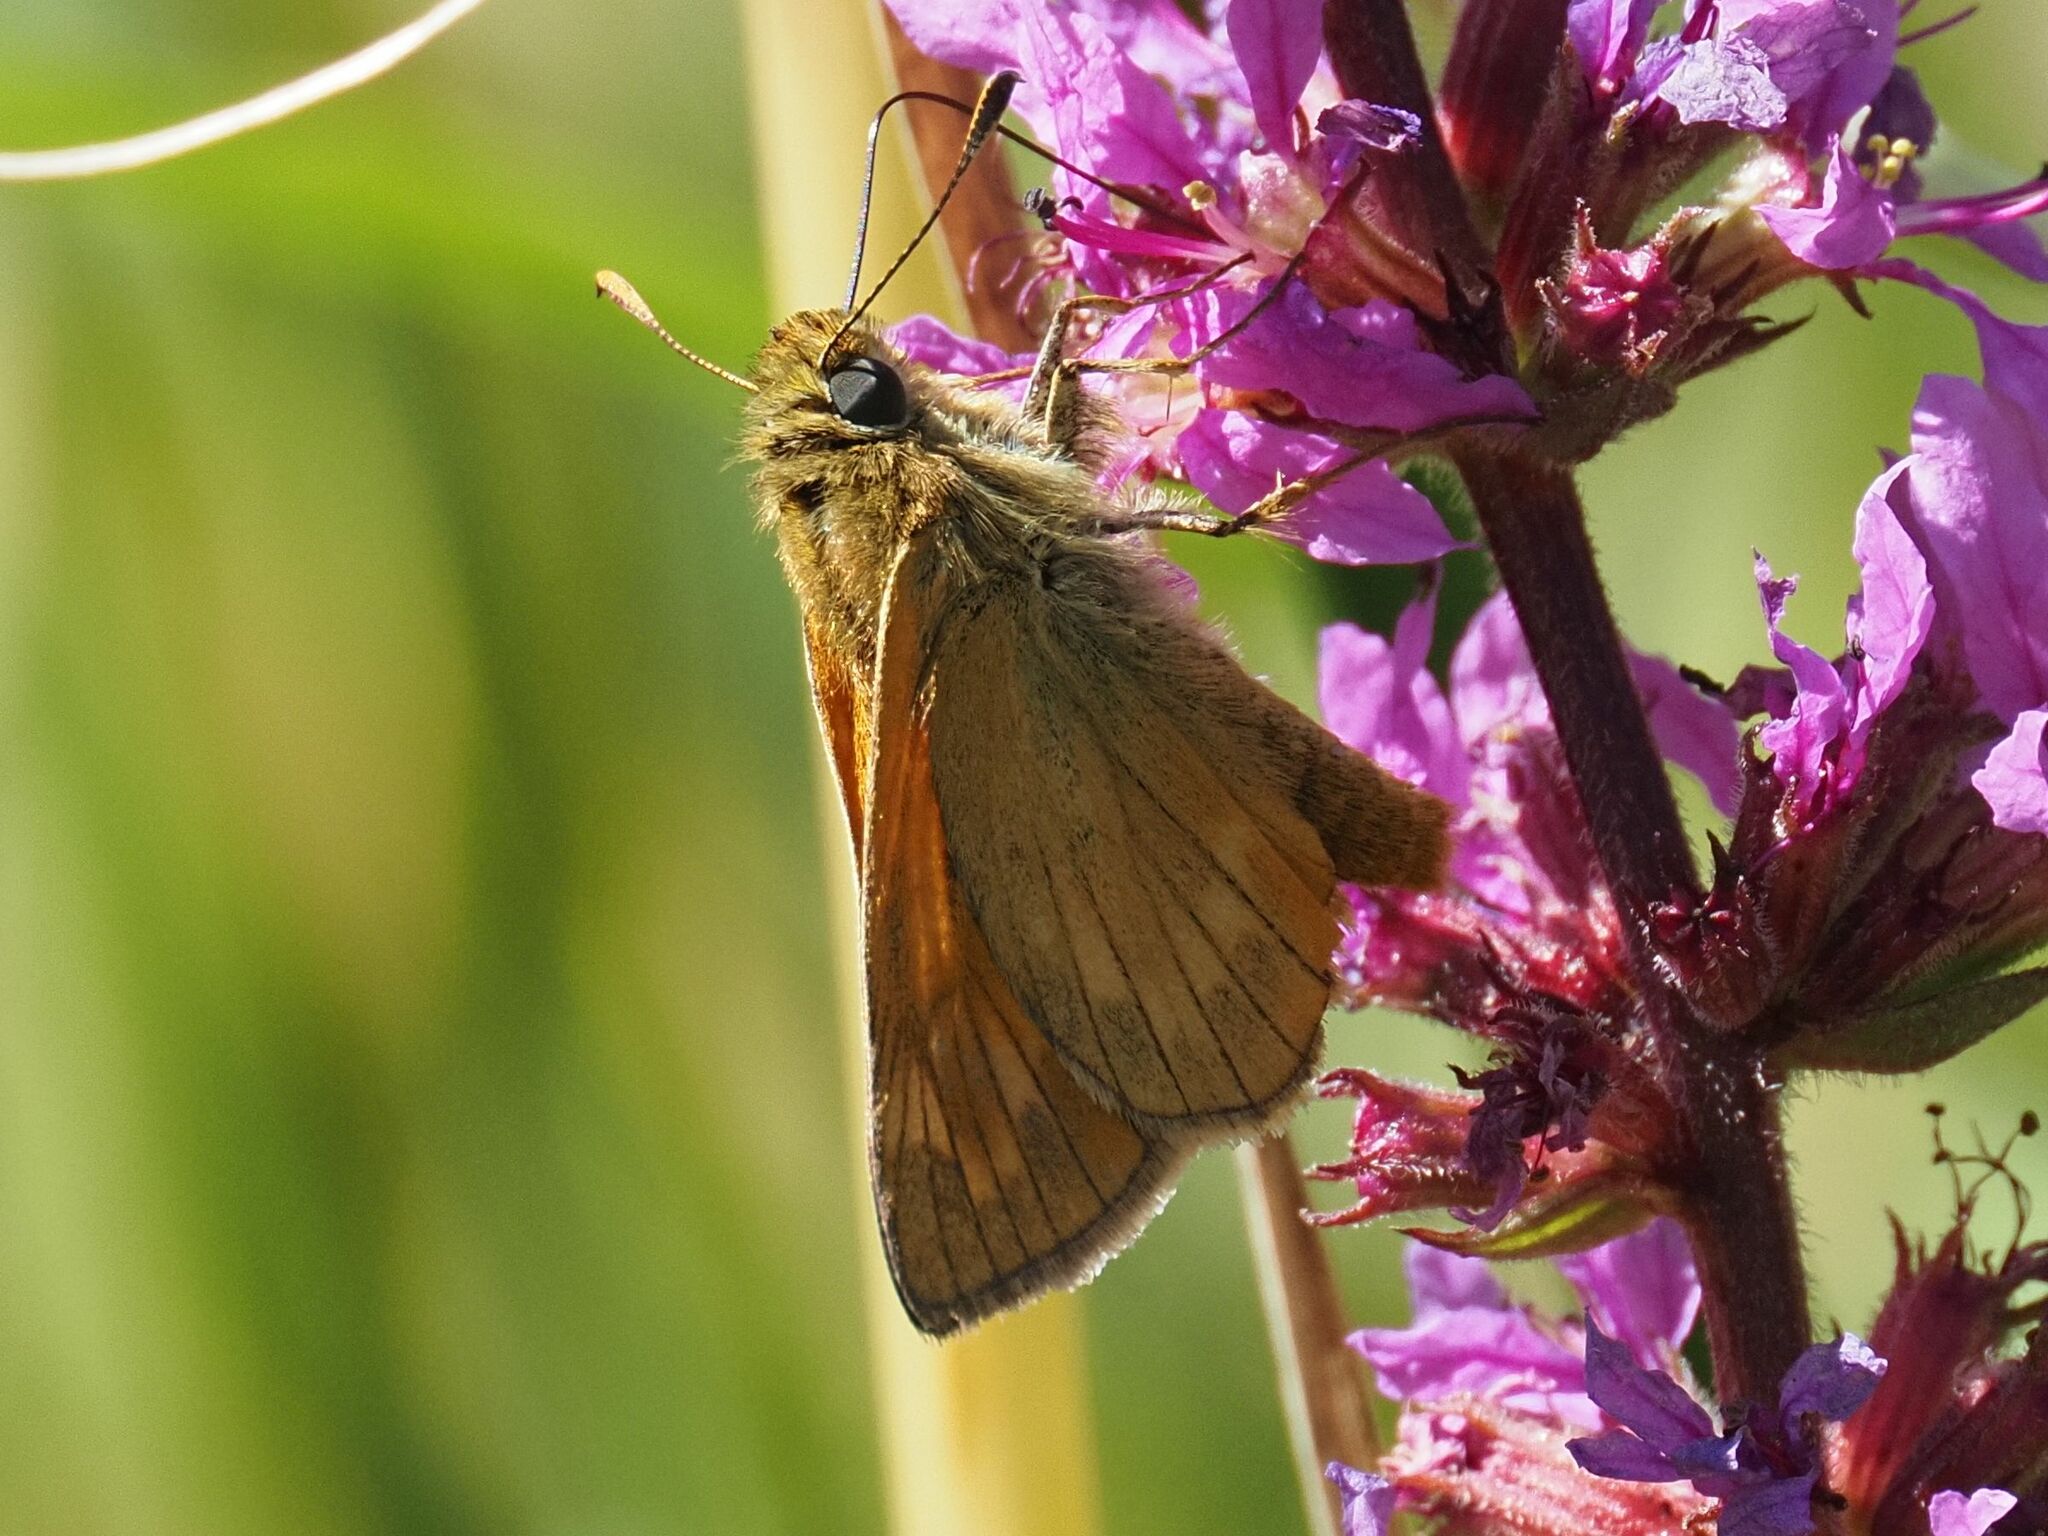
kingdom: Animalia
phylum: Arthropoda
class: Insecta
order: Lepidoptera
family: Hesperiidae
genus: Ochlodes
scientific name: Ochlodes venata
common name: Large skipper
